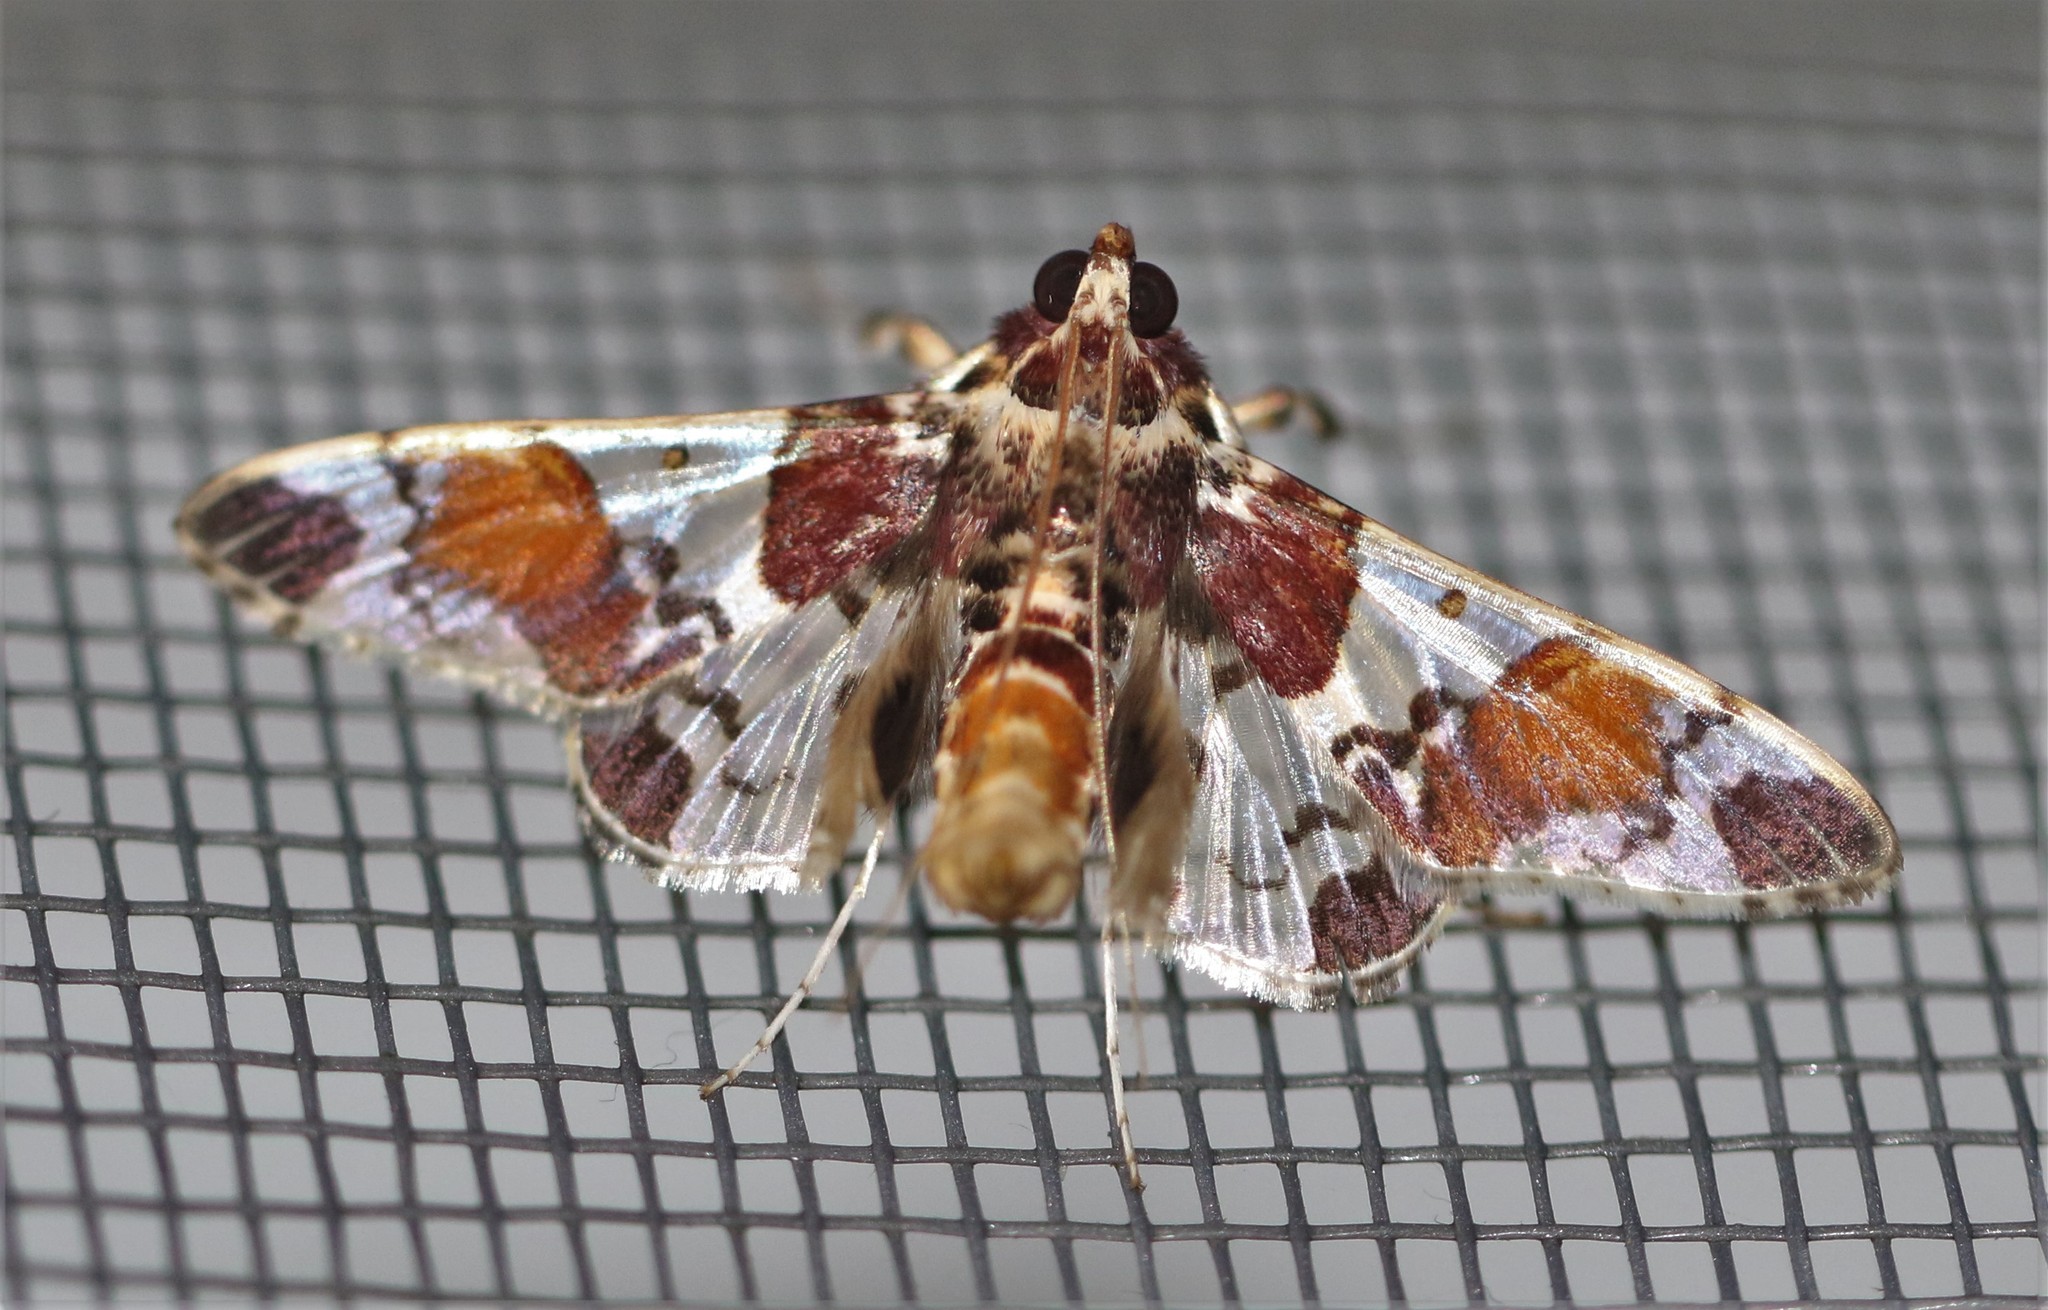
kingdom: Animalia
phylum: Arthropoda
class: Insecta
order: Lepidoptera
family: Crambidae
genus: Syngamilyta
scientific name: Syngamilyta
